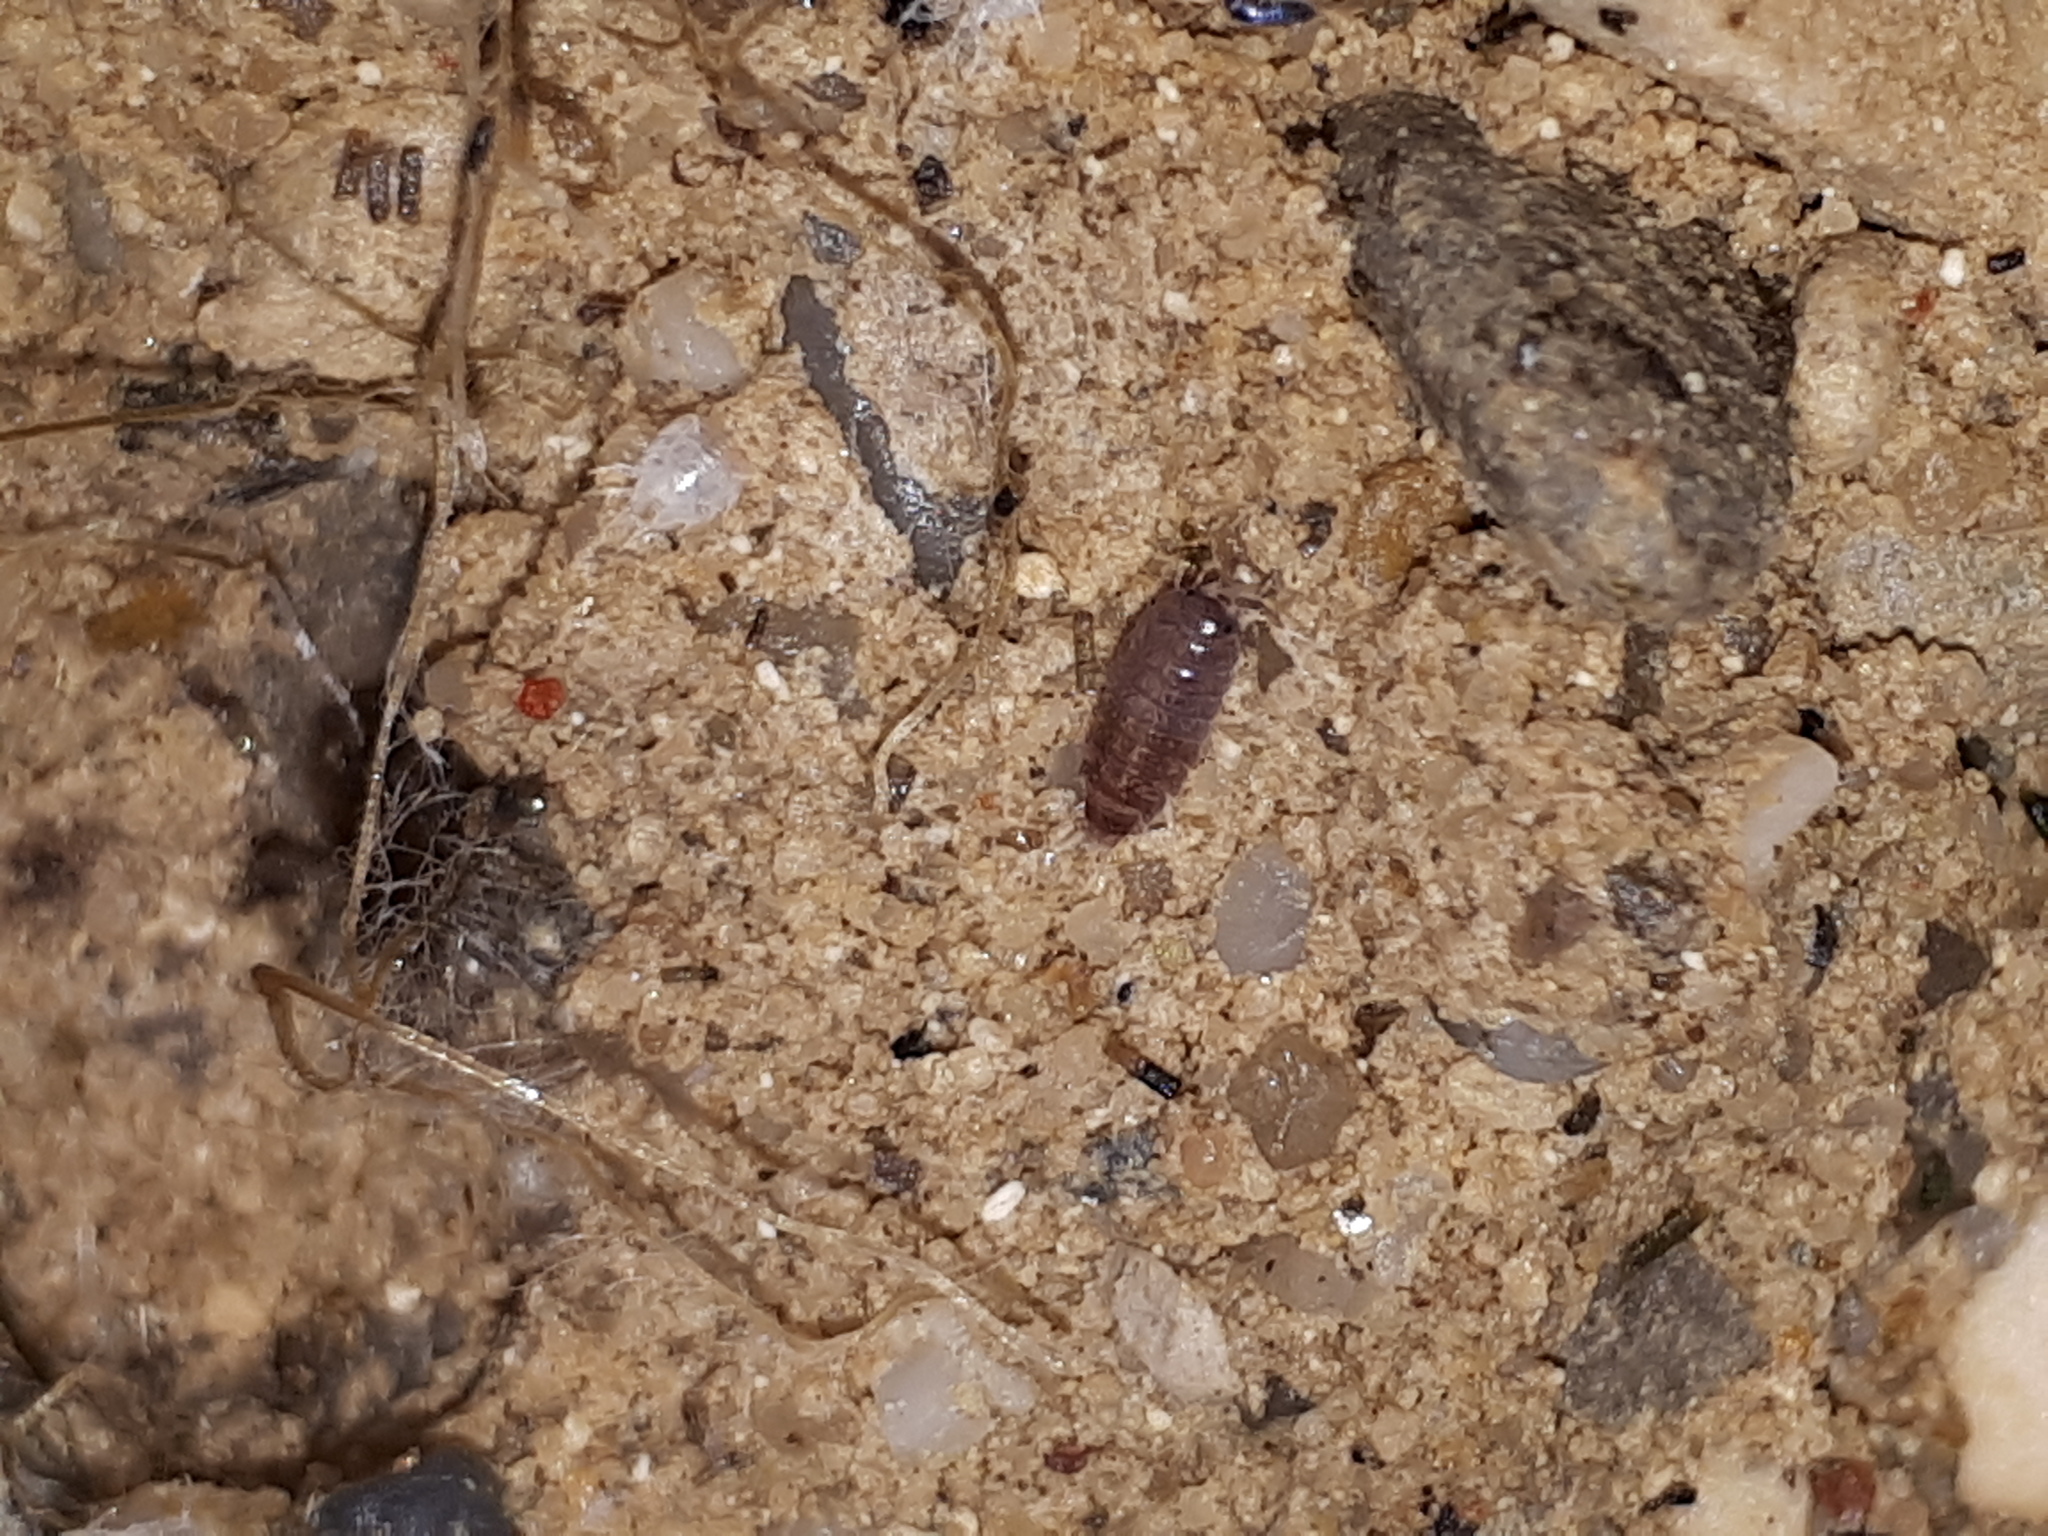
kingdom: Animalia
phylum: Arthropoda
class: Malacostraca
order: Isopoda
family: Trichoniscidae
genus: Hyloniscus
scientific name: Hyloniscus riparius
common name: Isopod
